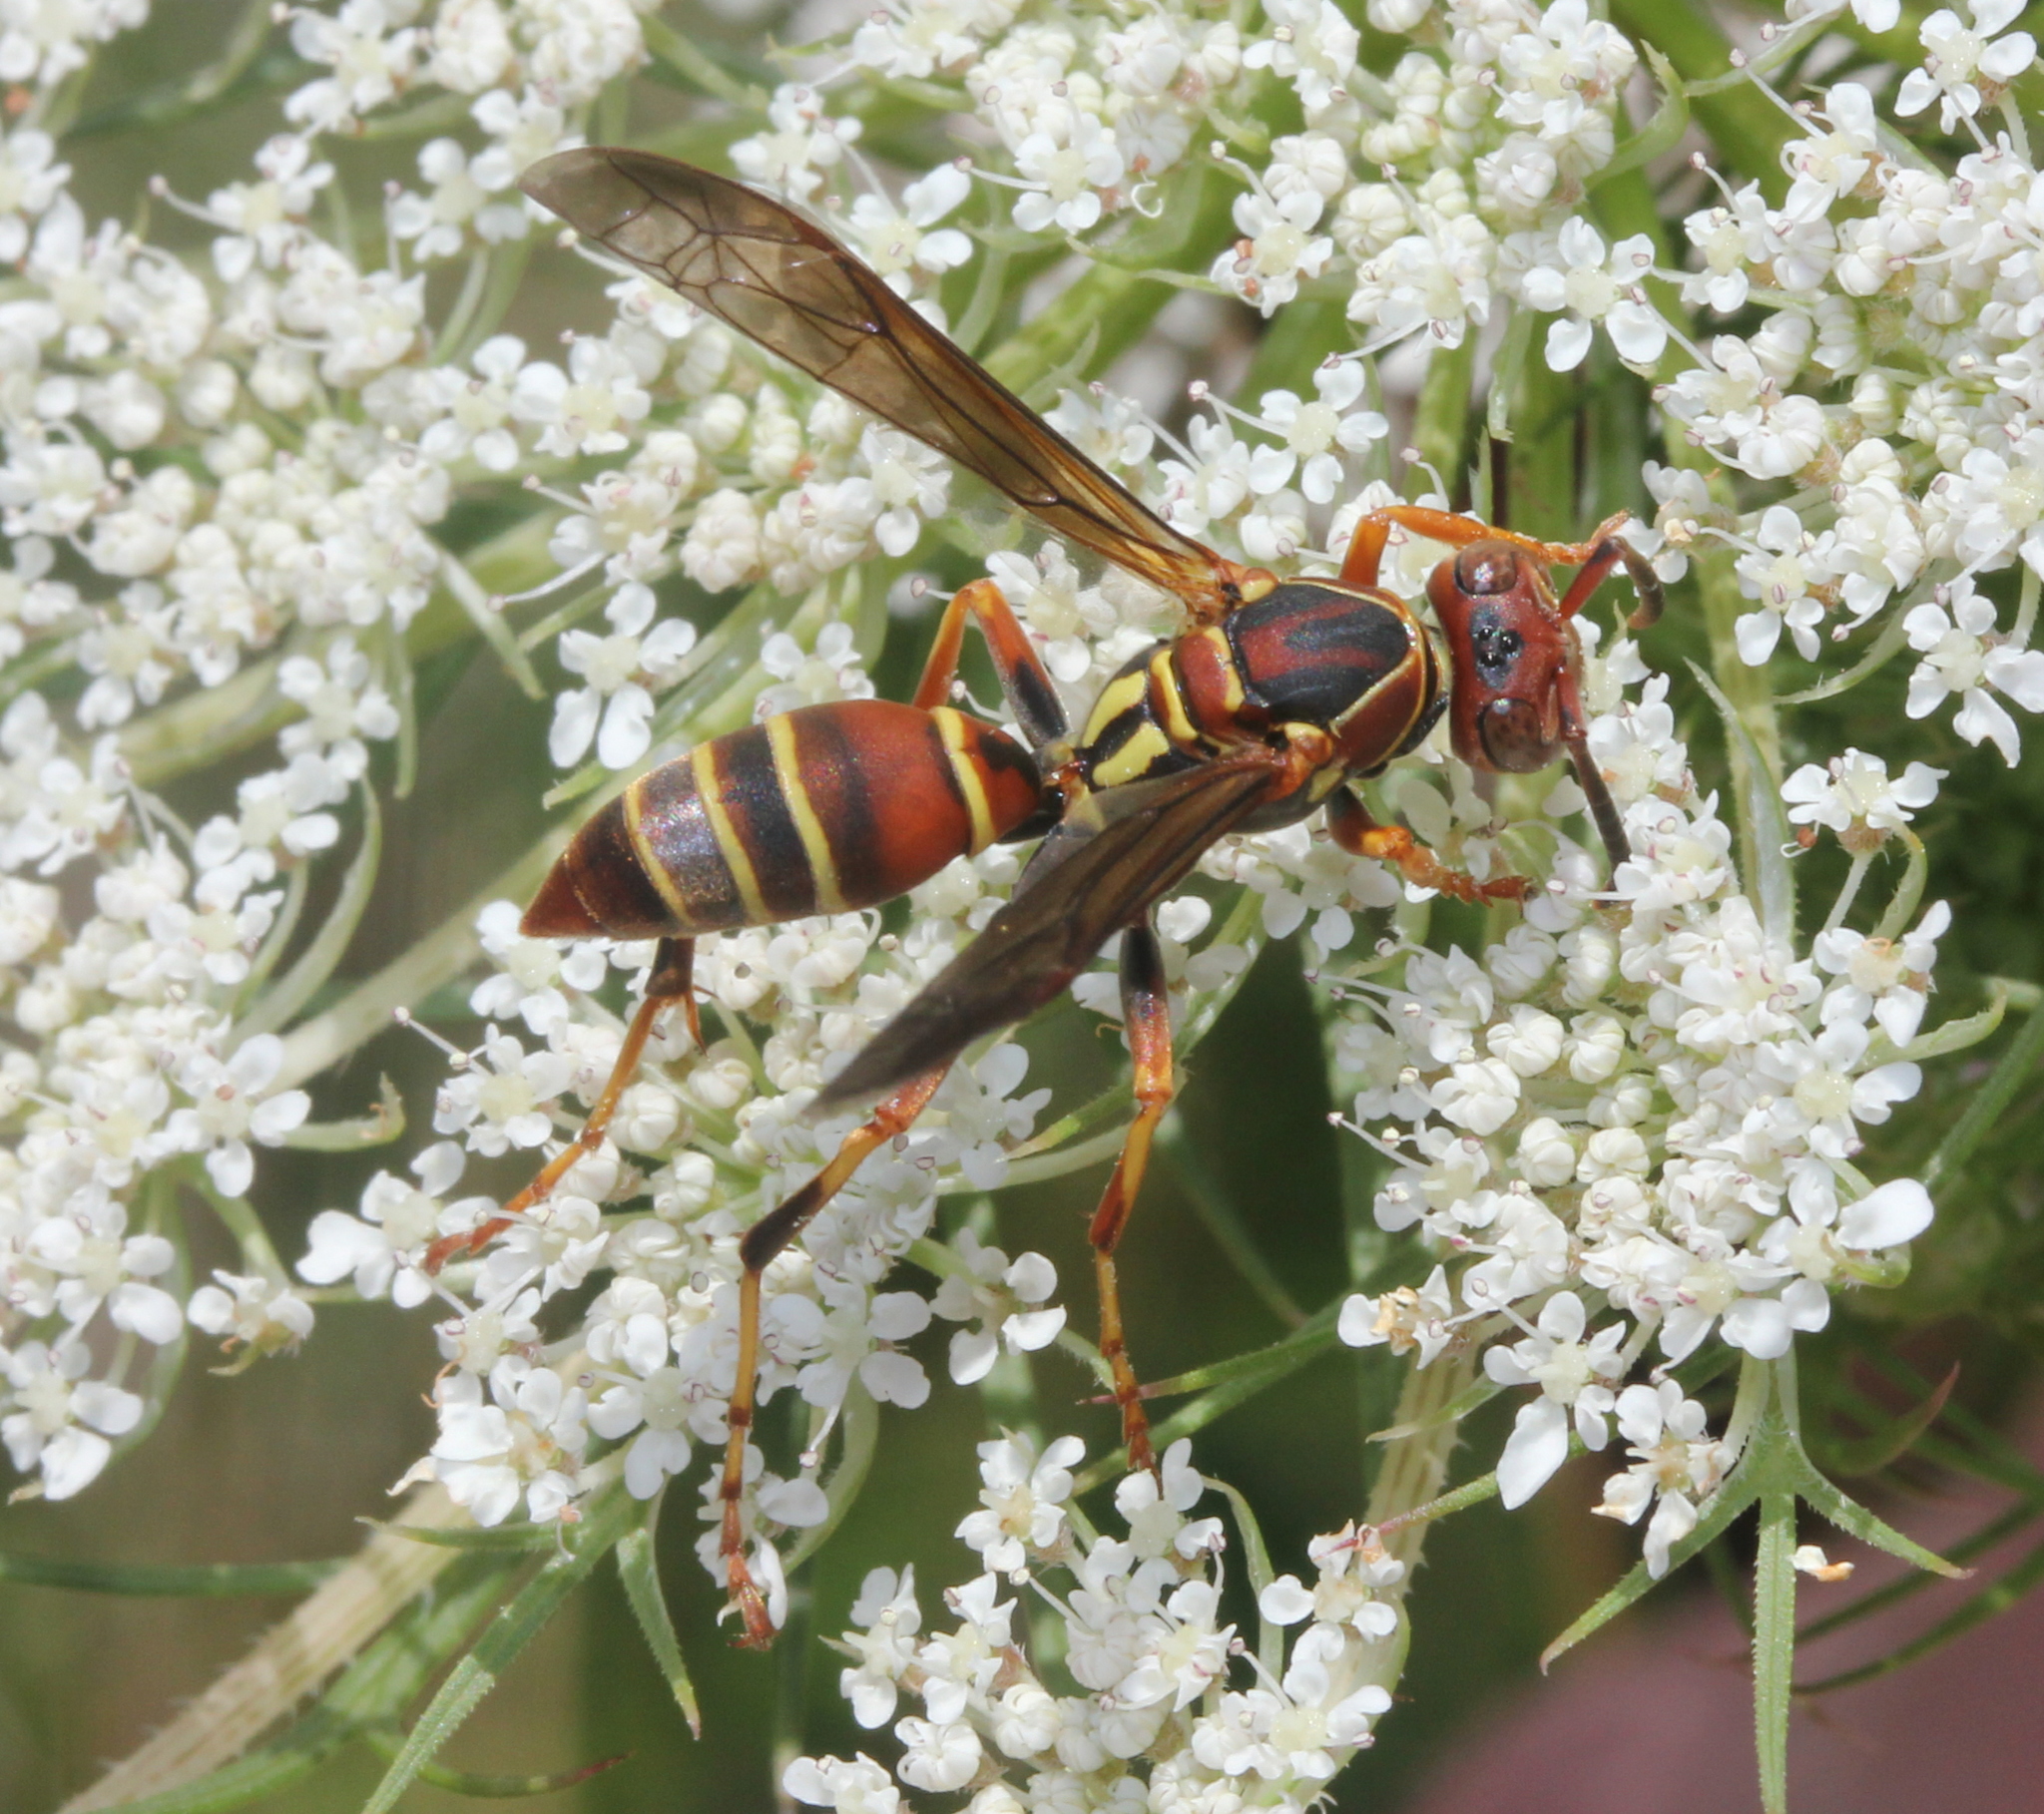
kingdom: Animalia
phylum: Arthropoda
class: Insecta
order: Hymenoptera
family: Eumenidae
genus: Polistes
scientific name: Polistes dorsalis
